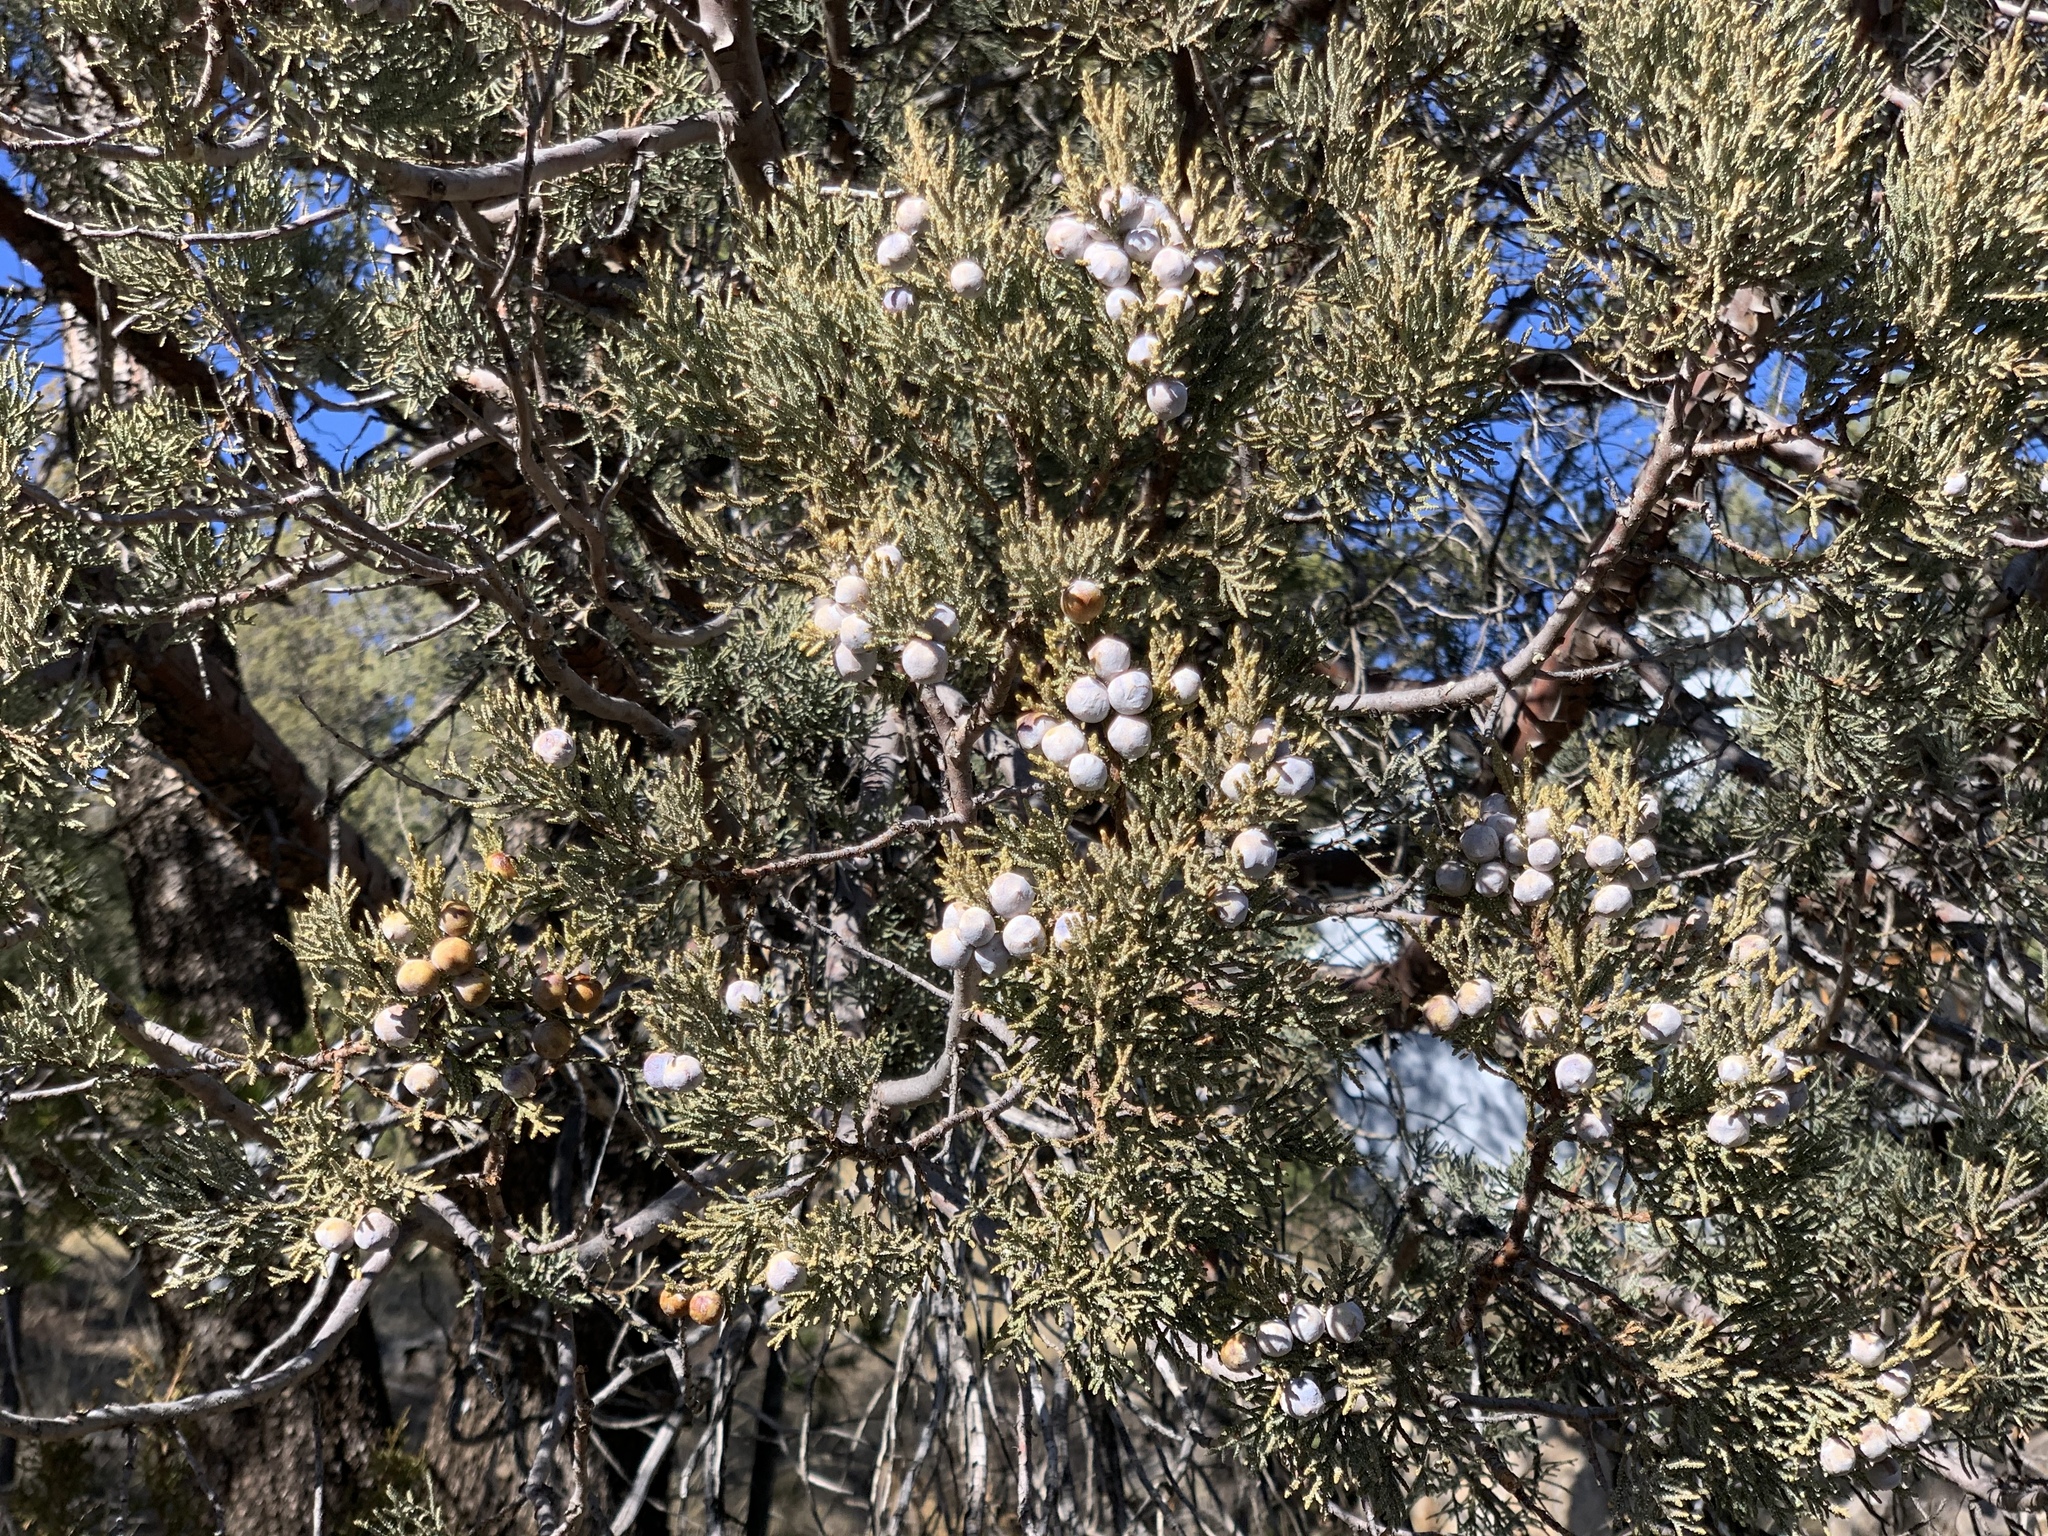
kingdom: Plantae
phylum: Tracheophyta
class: Pinopsida
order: Pinales
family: Cupressaceae
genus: Juniperus
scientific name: Juniperus deppeana
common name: Alligator juniper
